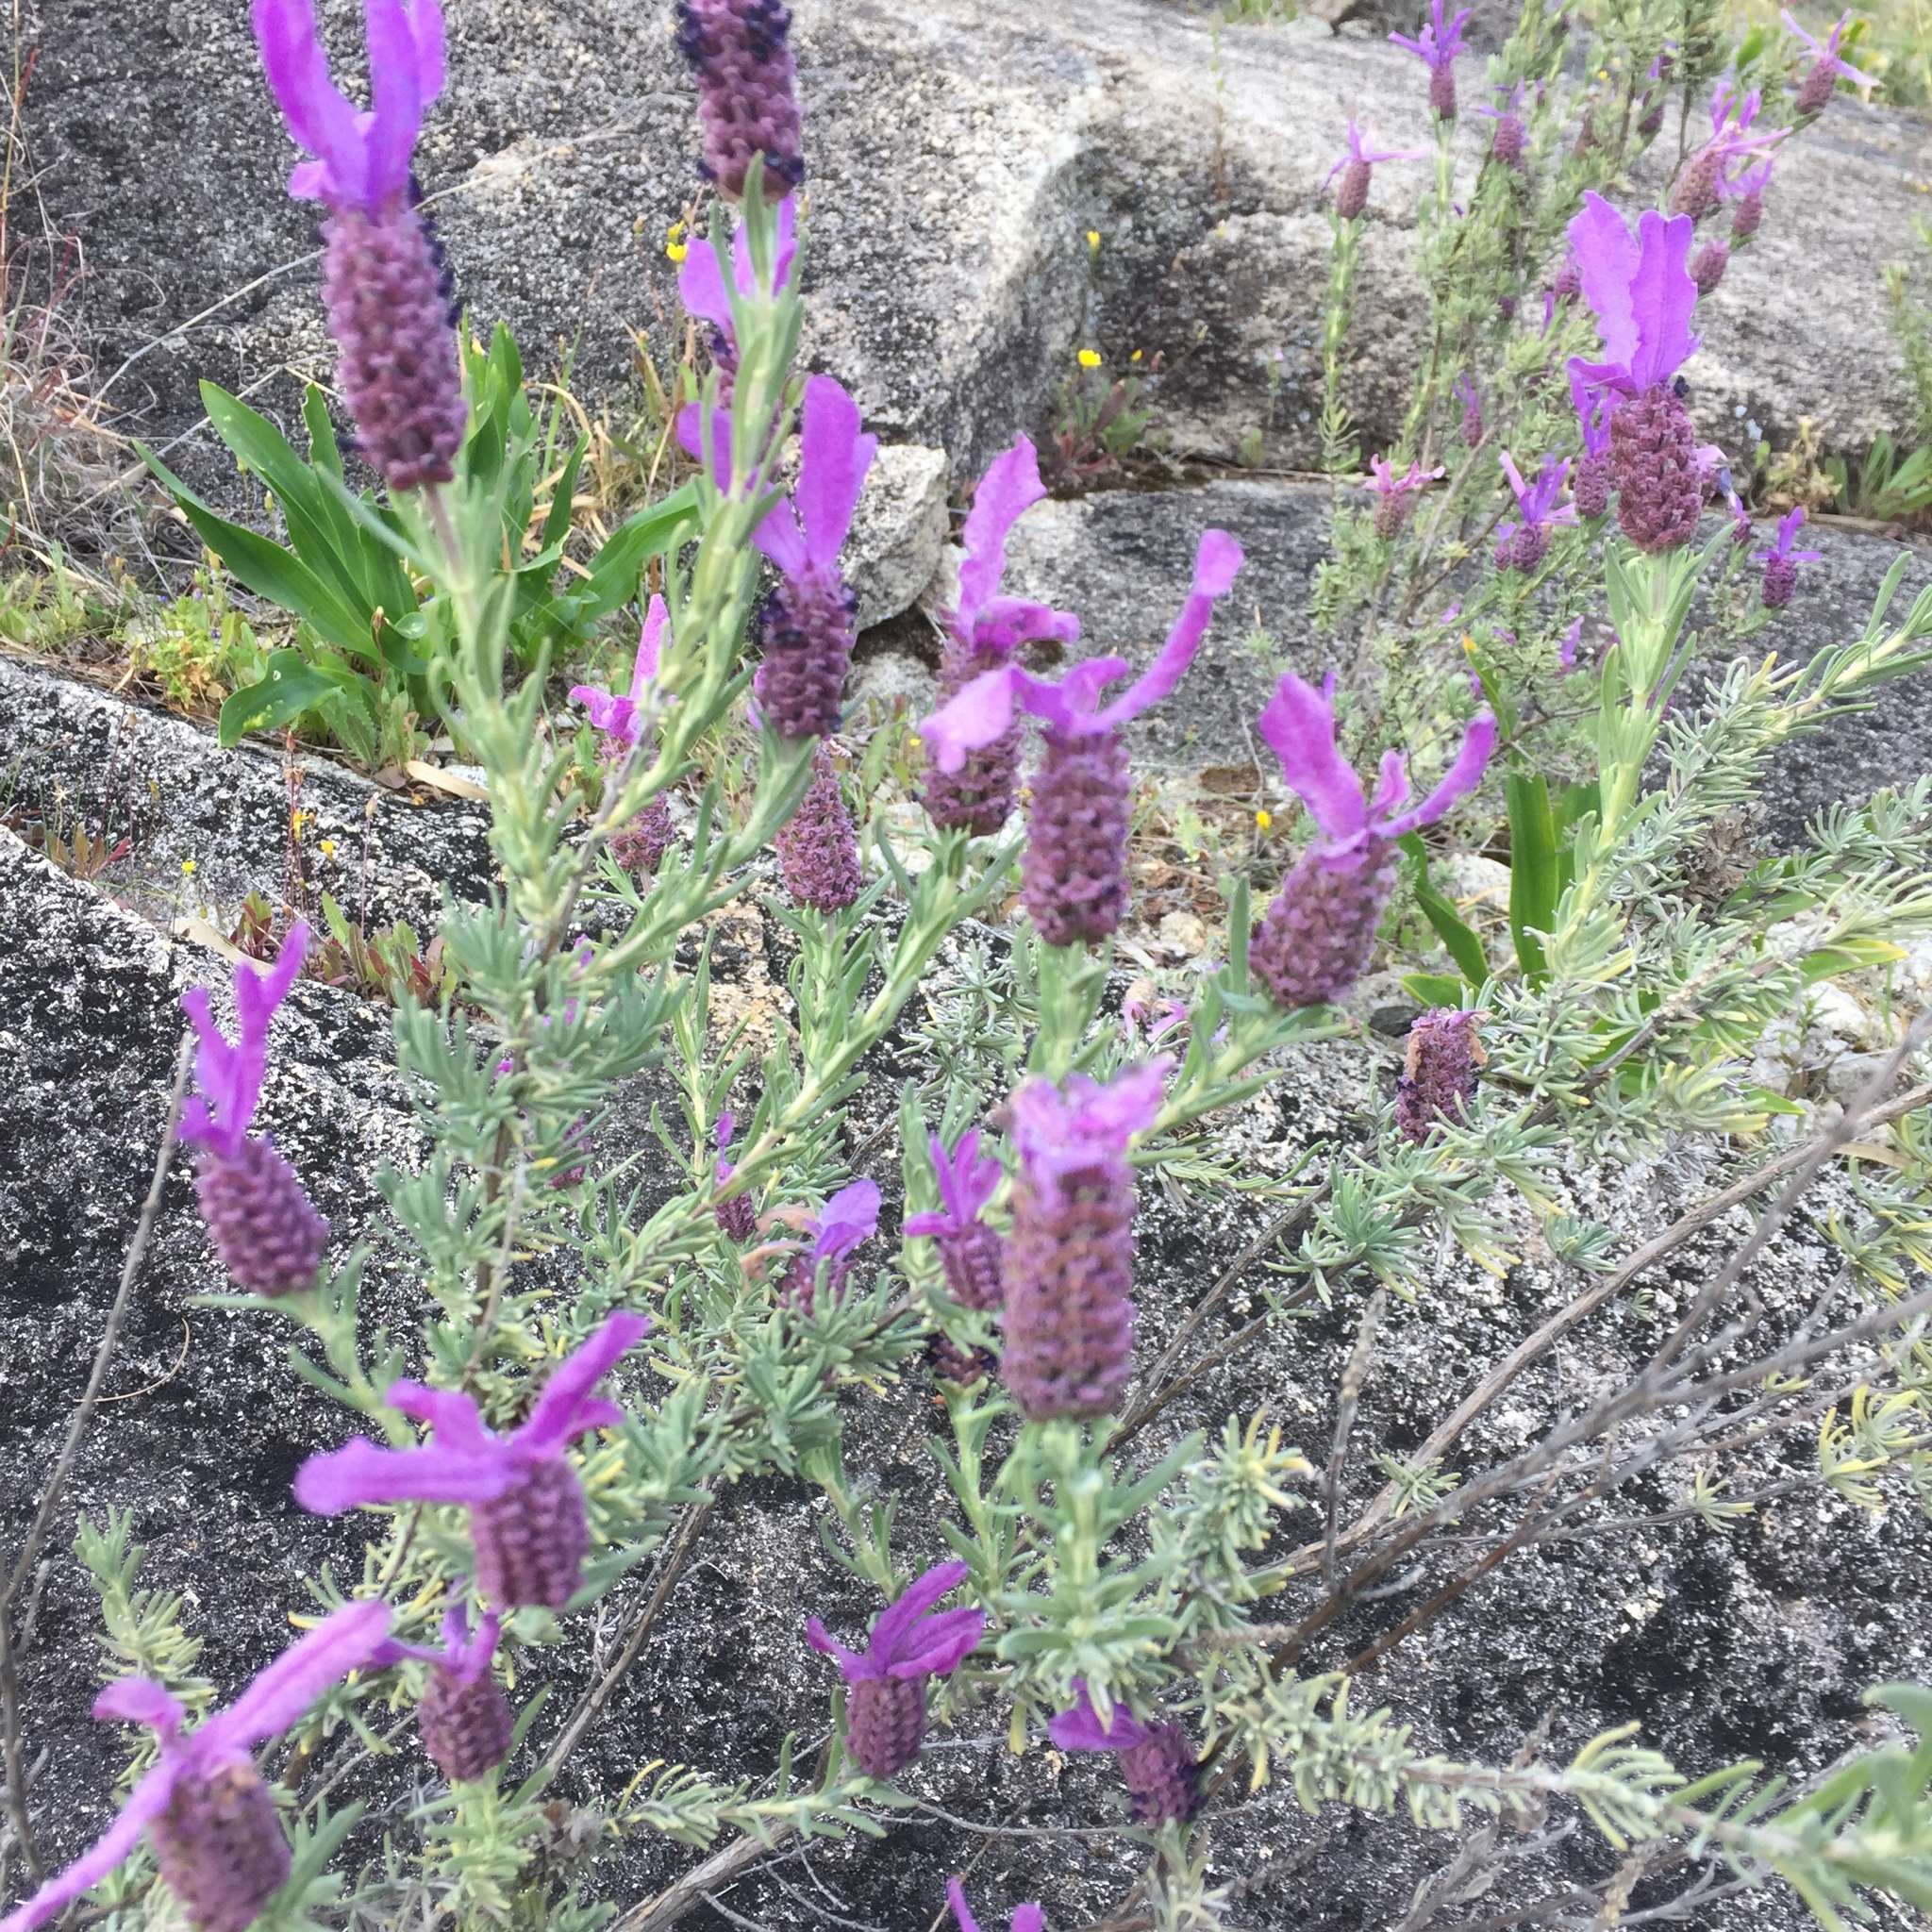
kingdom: Plantae
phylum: Tracheophyta
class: Magnoliopsida
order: Lamiales
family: Lamiaceae
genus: Lavandula
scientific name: Lavandula stoechas
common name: French lavender
